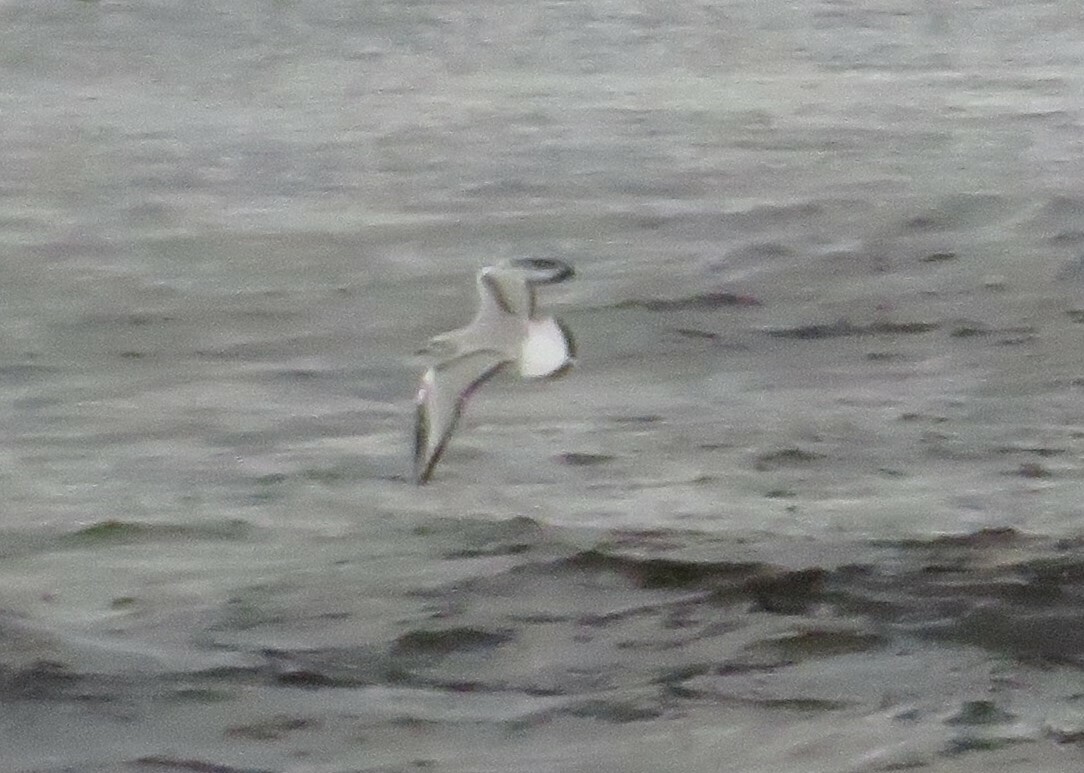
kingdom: Animalia
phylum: Chordata
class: Aves
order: Charadriiformes
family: Laridae
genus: Chroicocephalus
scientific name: Chroicocephalus philadelphia
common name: Bonaparte's gull
